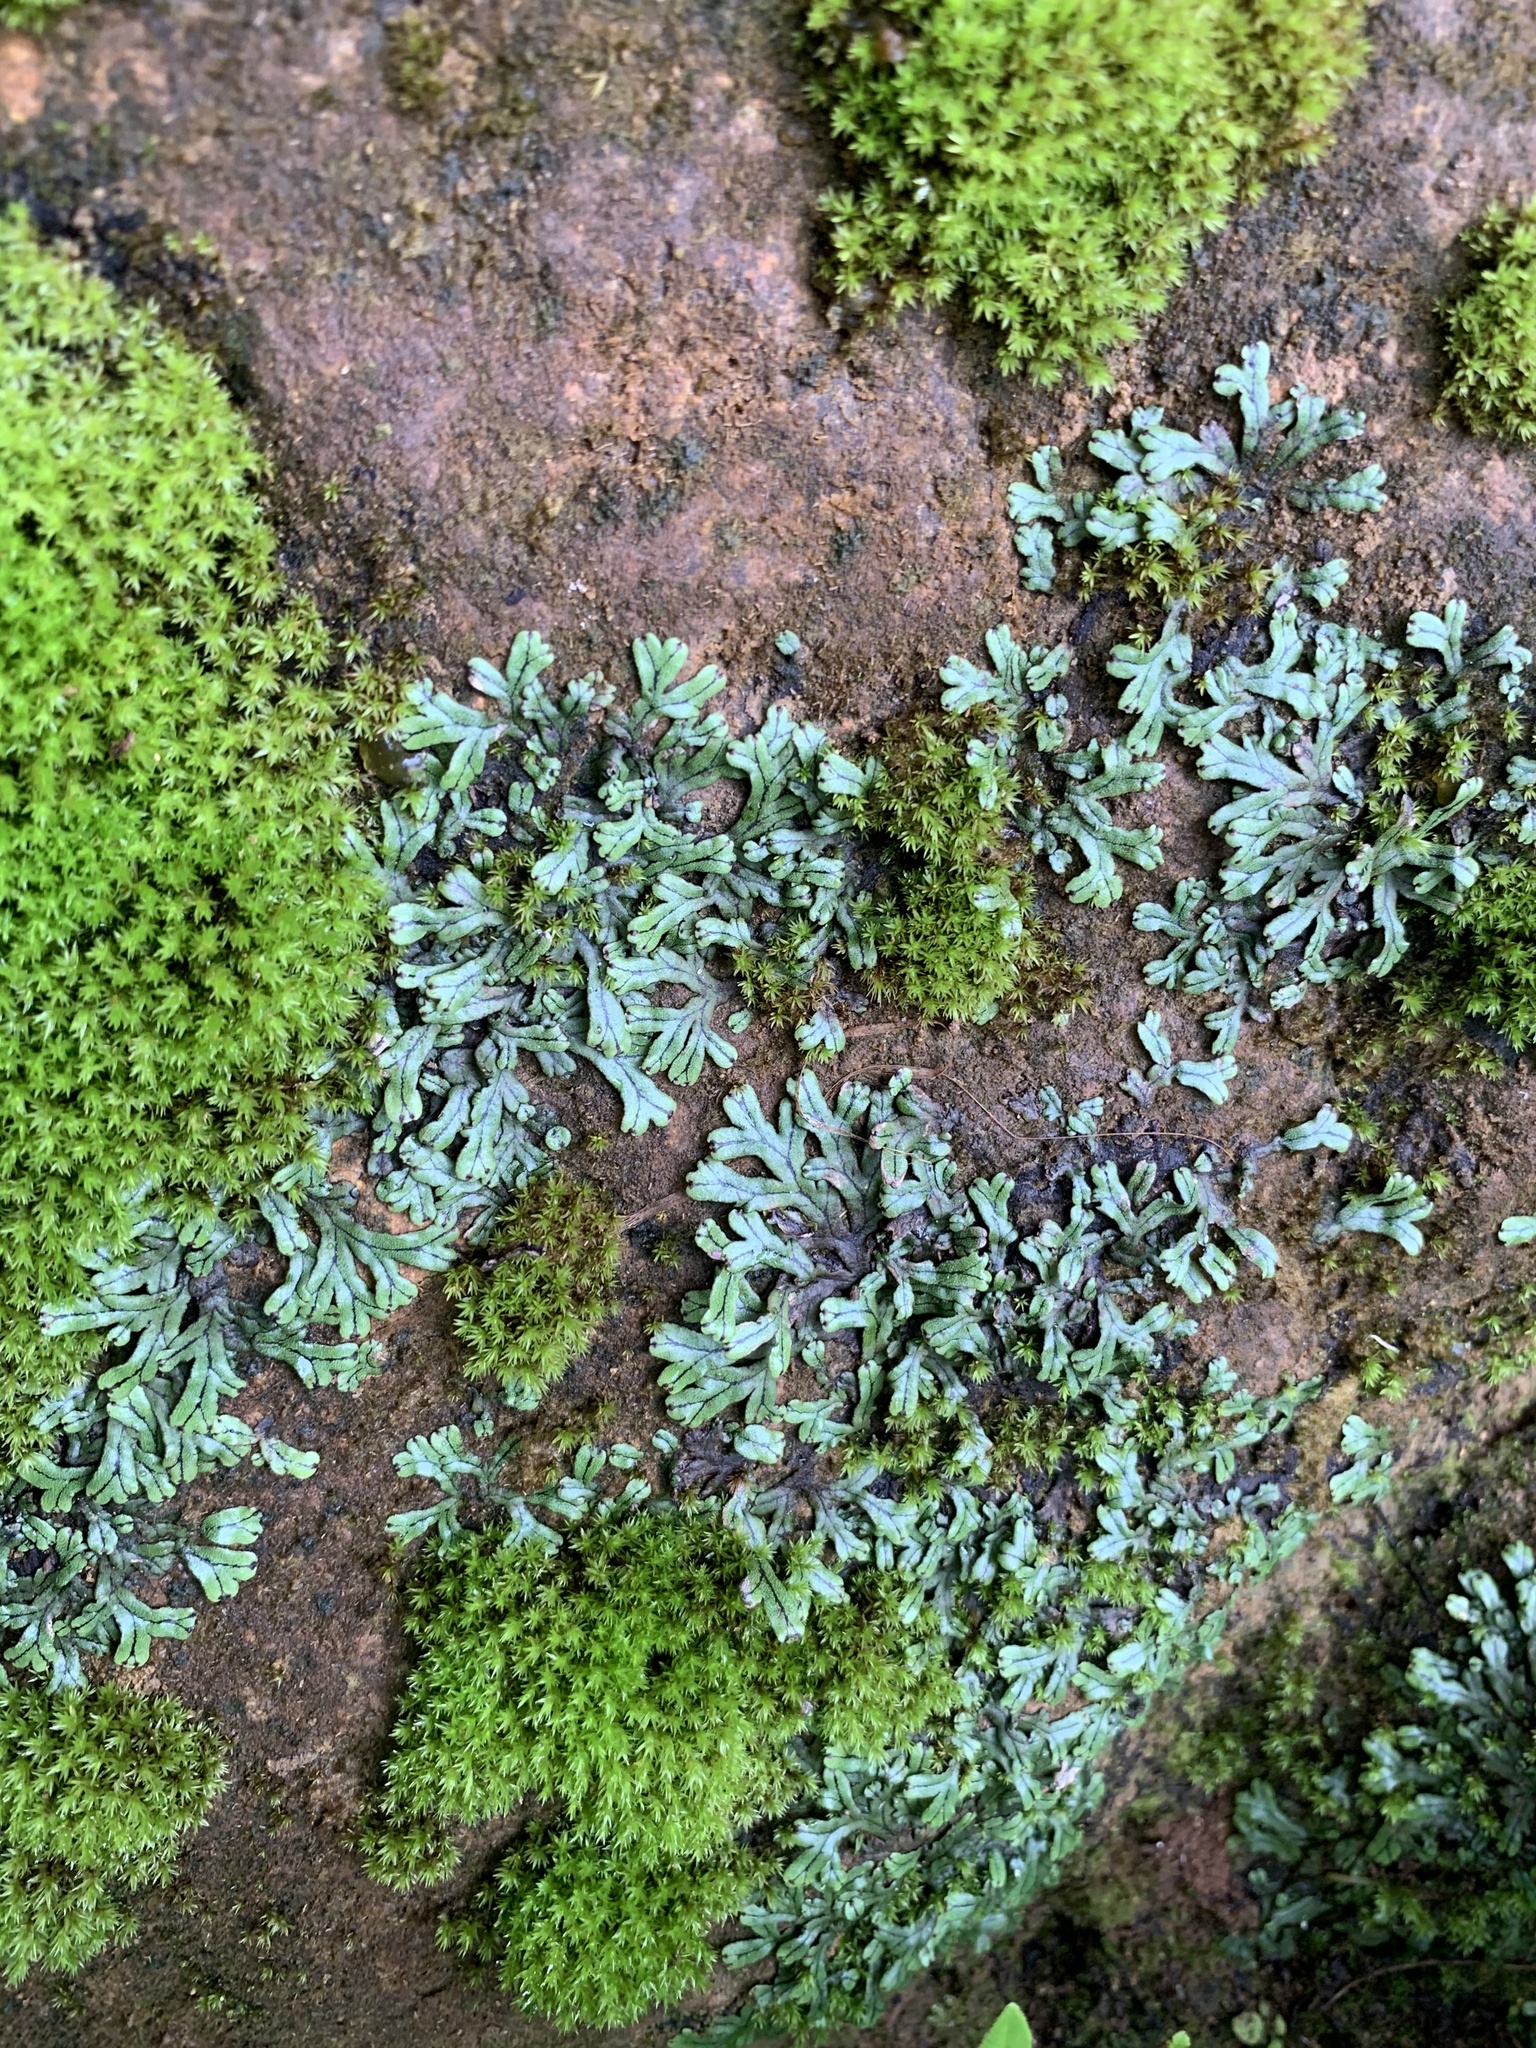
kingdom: Plantae
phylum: Marchantiophyta
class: Marchantiopsida
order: Marchantiales
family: Marchantiaceae
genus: Marchantia
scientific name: Marchantia emarginata
